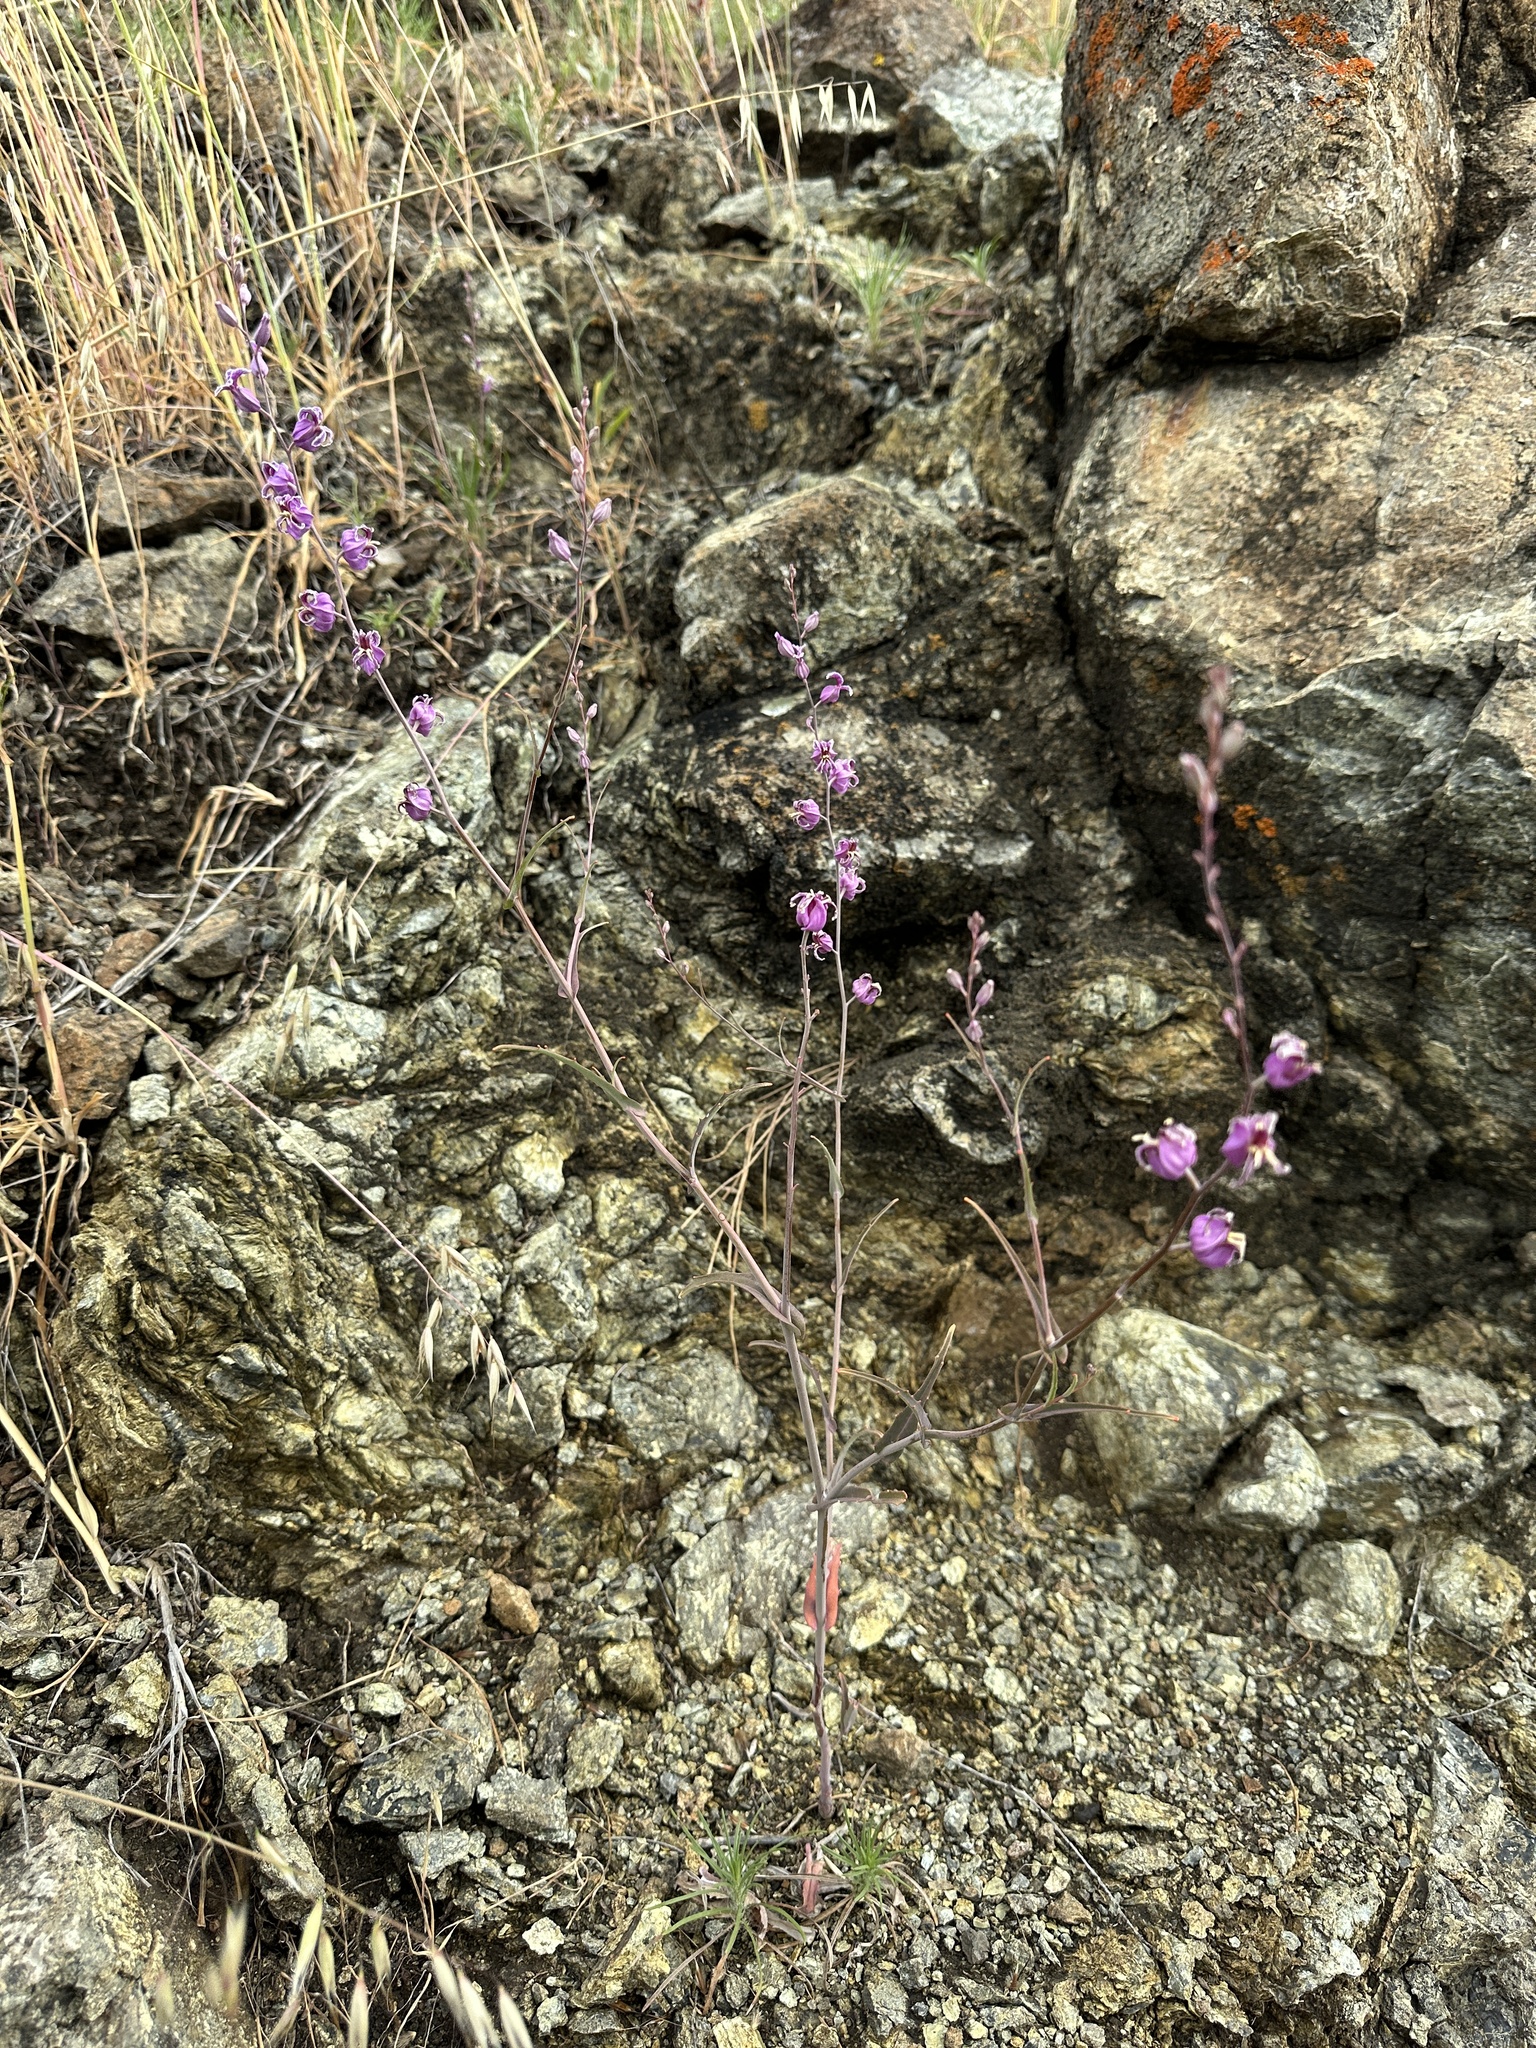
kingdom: Plantae
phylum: Tracheophyta
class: Magnoliopsida
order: Brassicales
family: Brassicaceae
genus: Streptanthus
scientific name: Streptanthus glandulosus
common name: Jewel-flower
